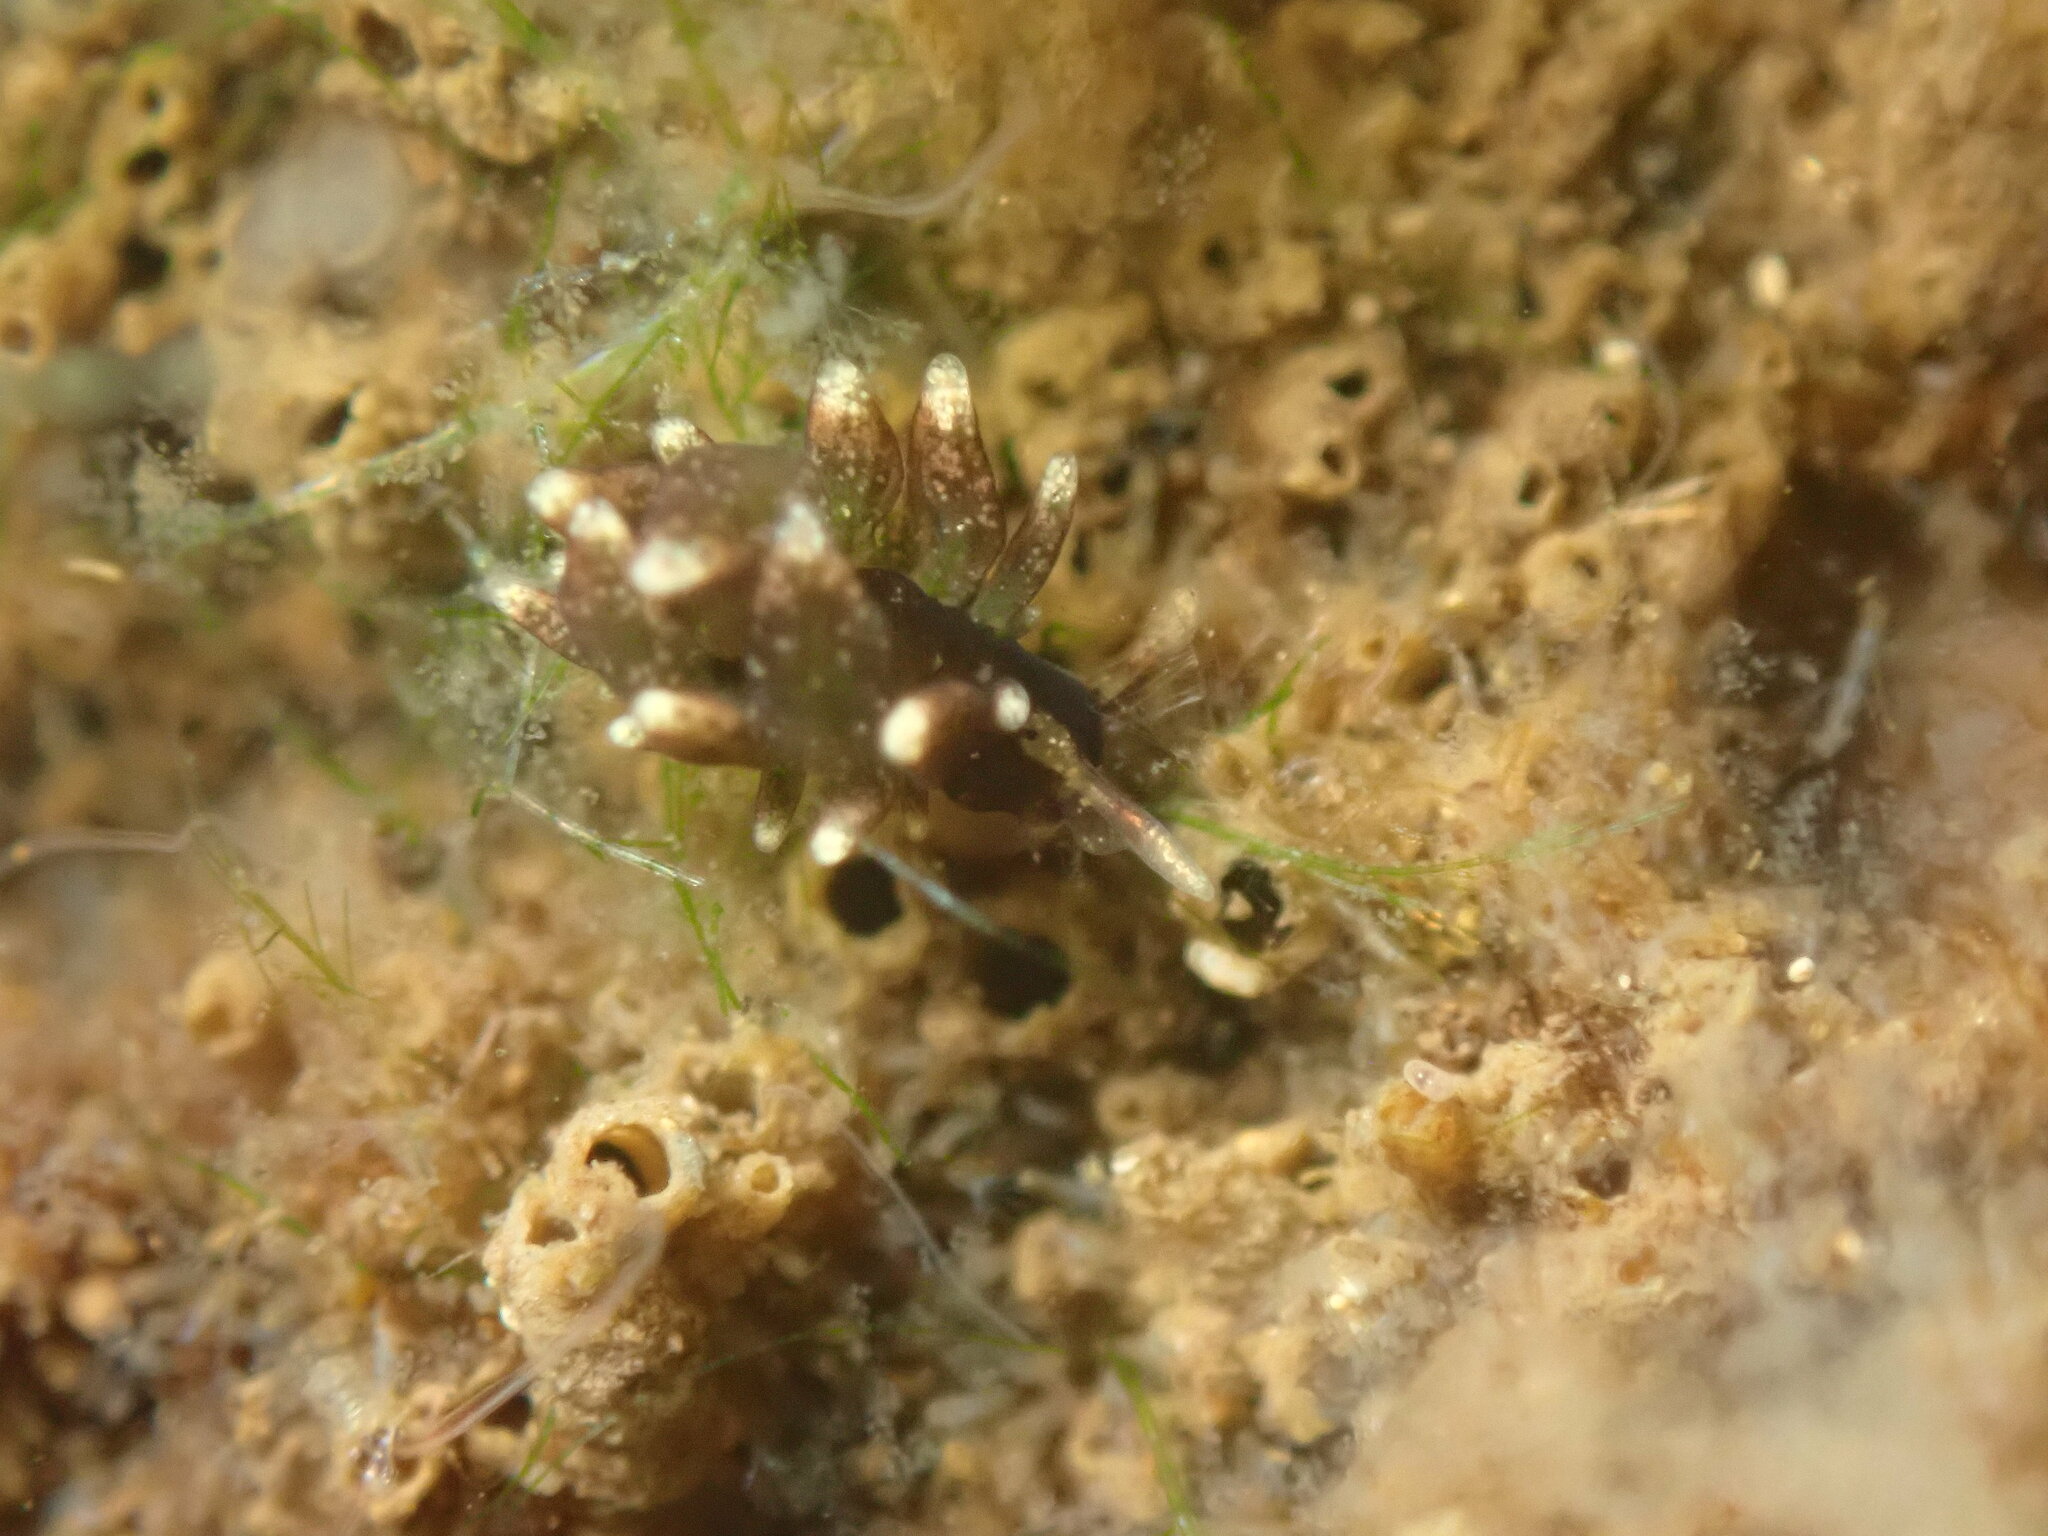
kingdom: Animalia
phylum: Mollusca
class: Gastropoda
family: Hermaeidae
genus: Aplysiopsis
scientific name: Aplysiopsis enteromorphae
